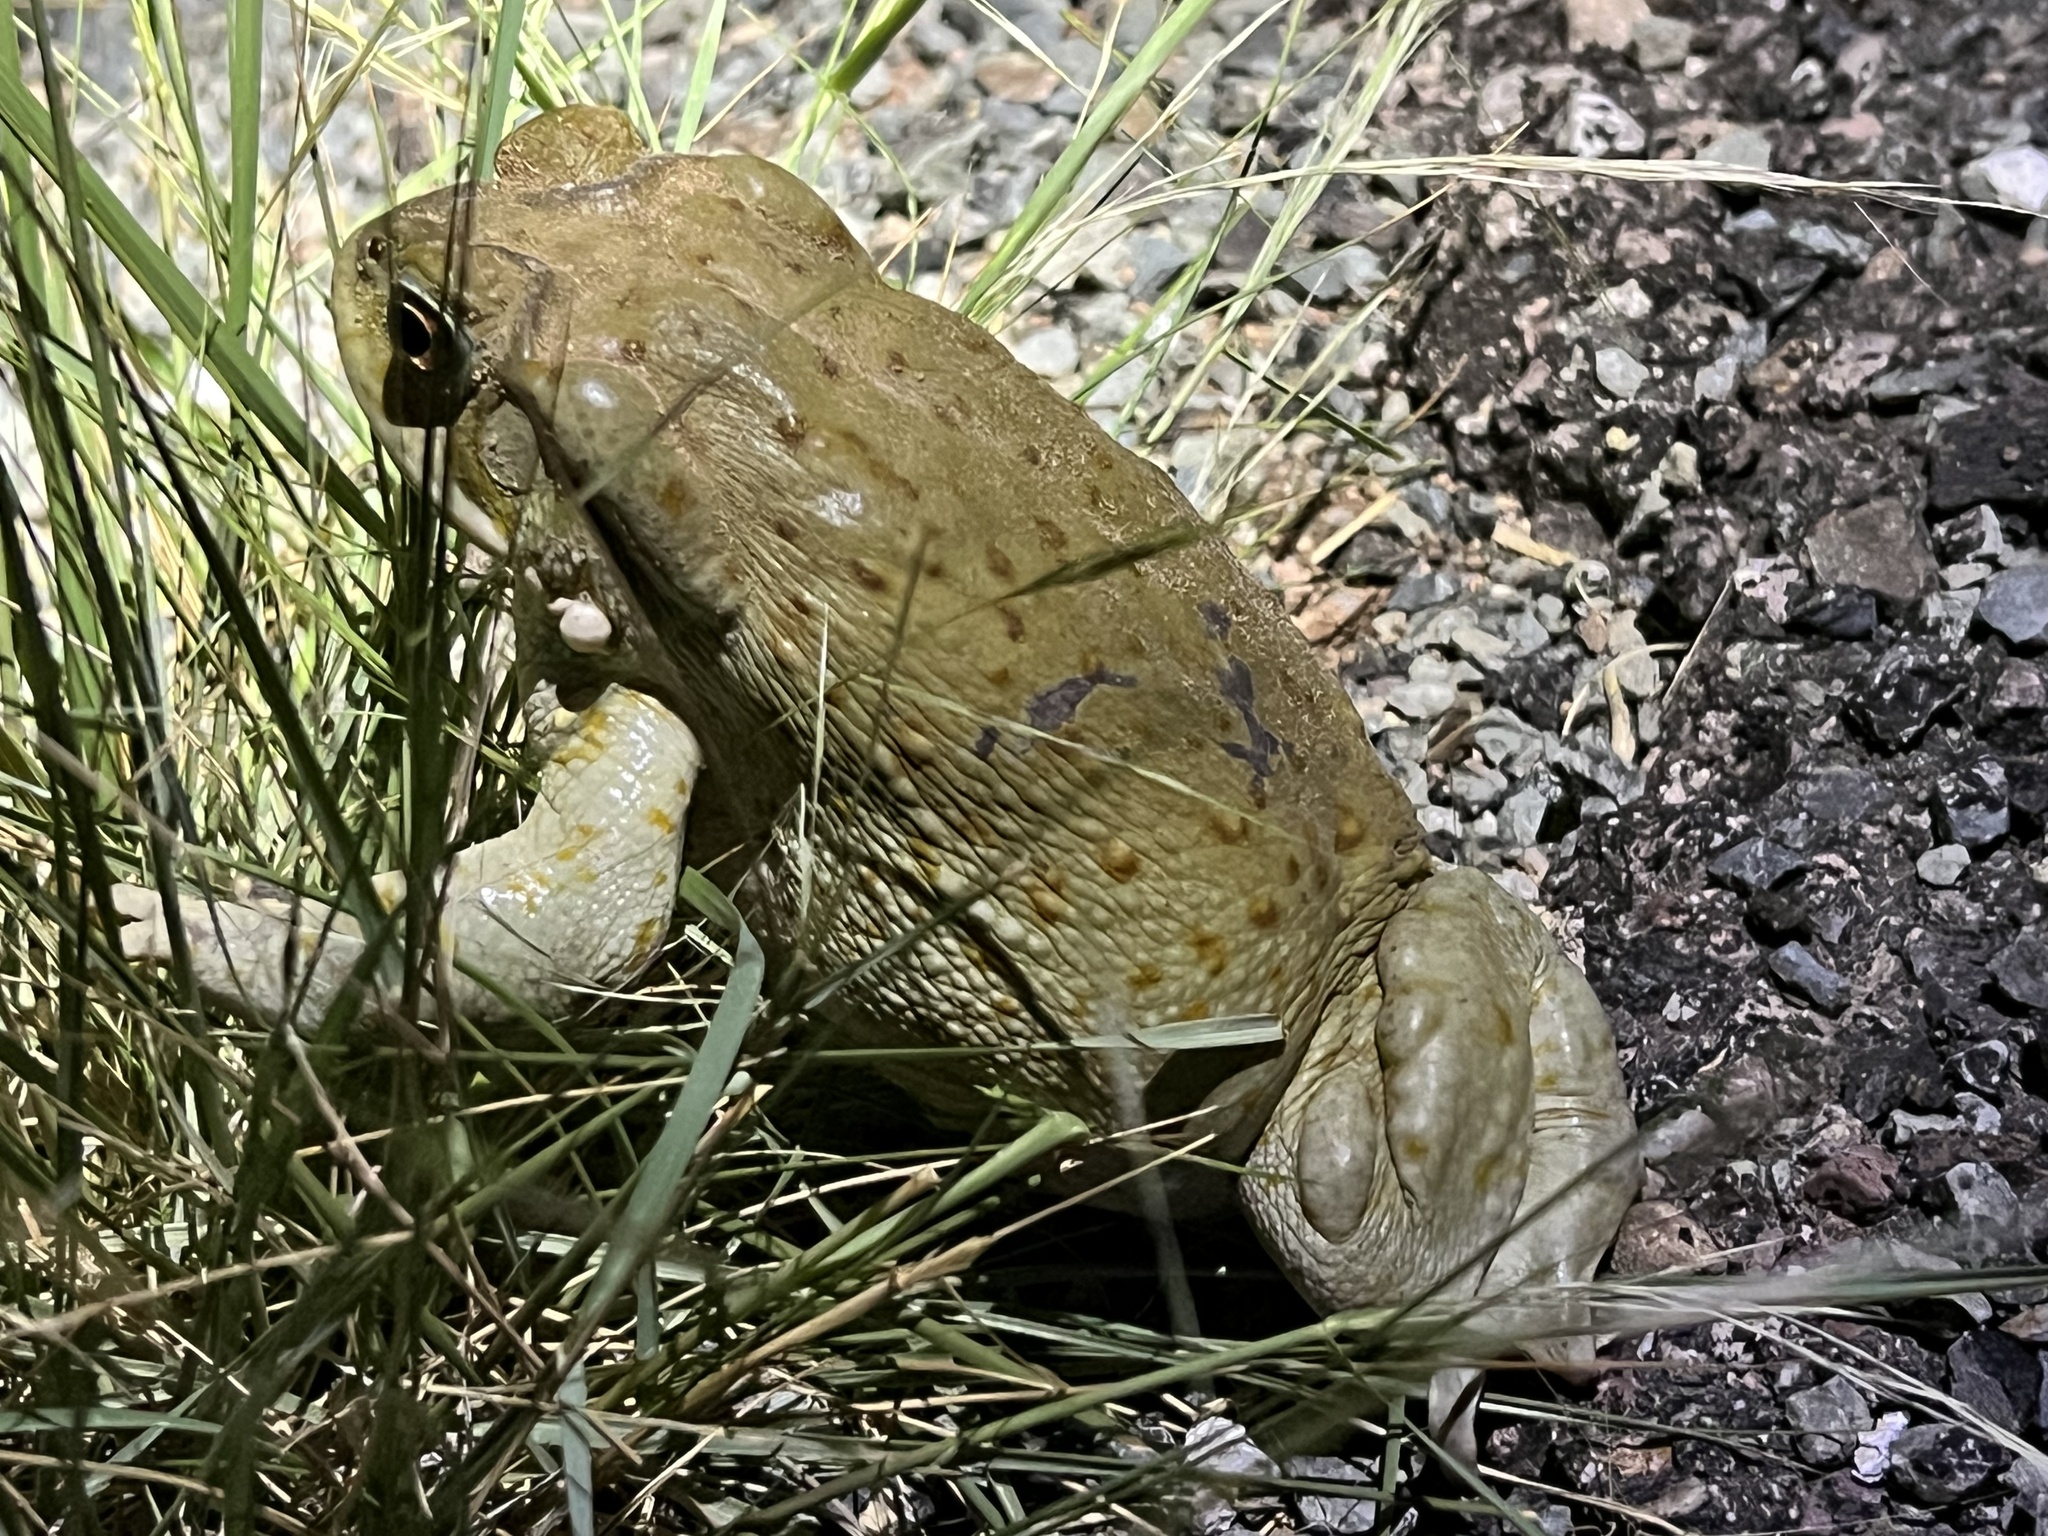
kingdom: Animalia
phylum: Chordata
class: Amphibia
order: Anura
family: Bufonidae
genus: Incilius
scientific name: Incilius alvarius
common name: Sonoran desert toad
